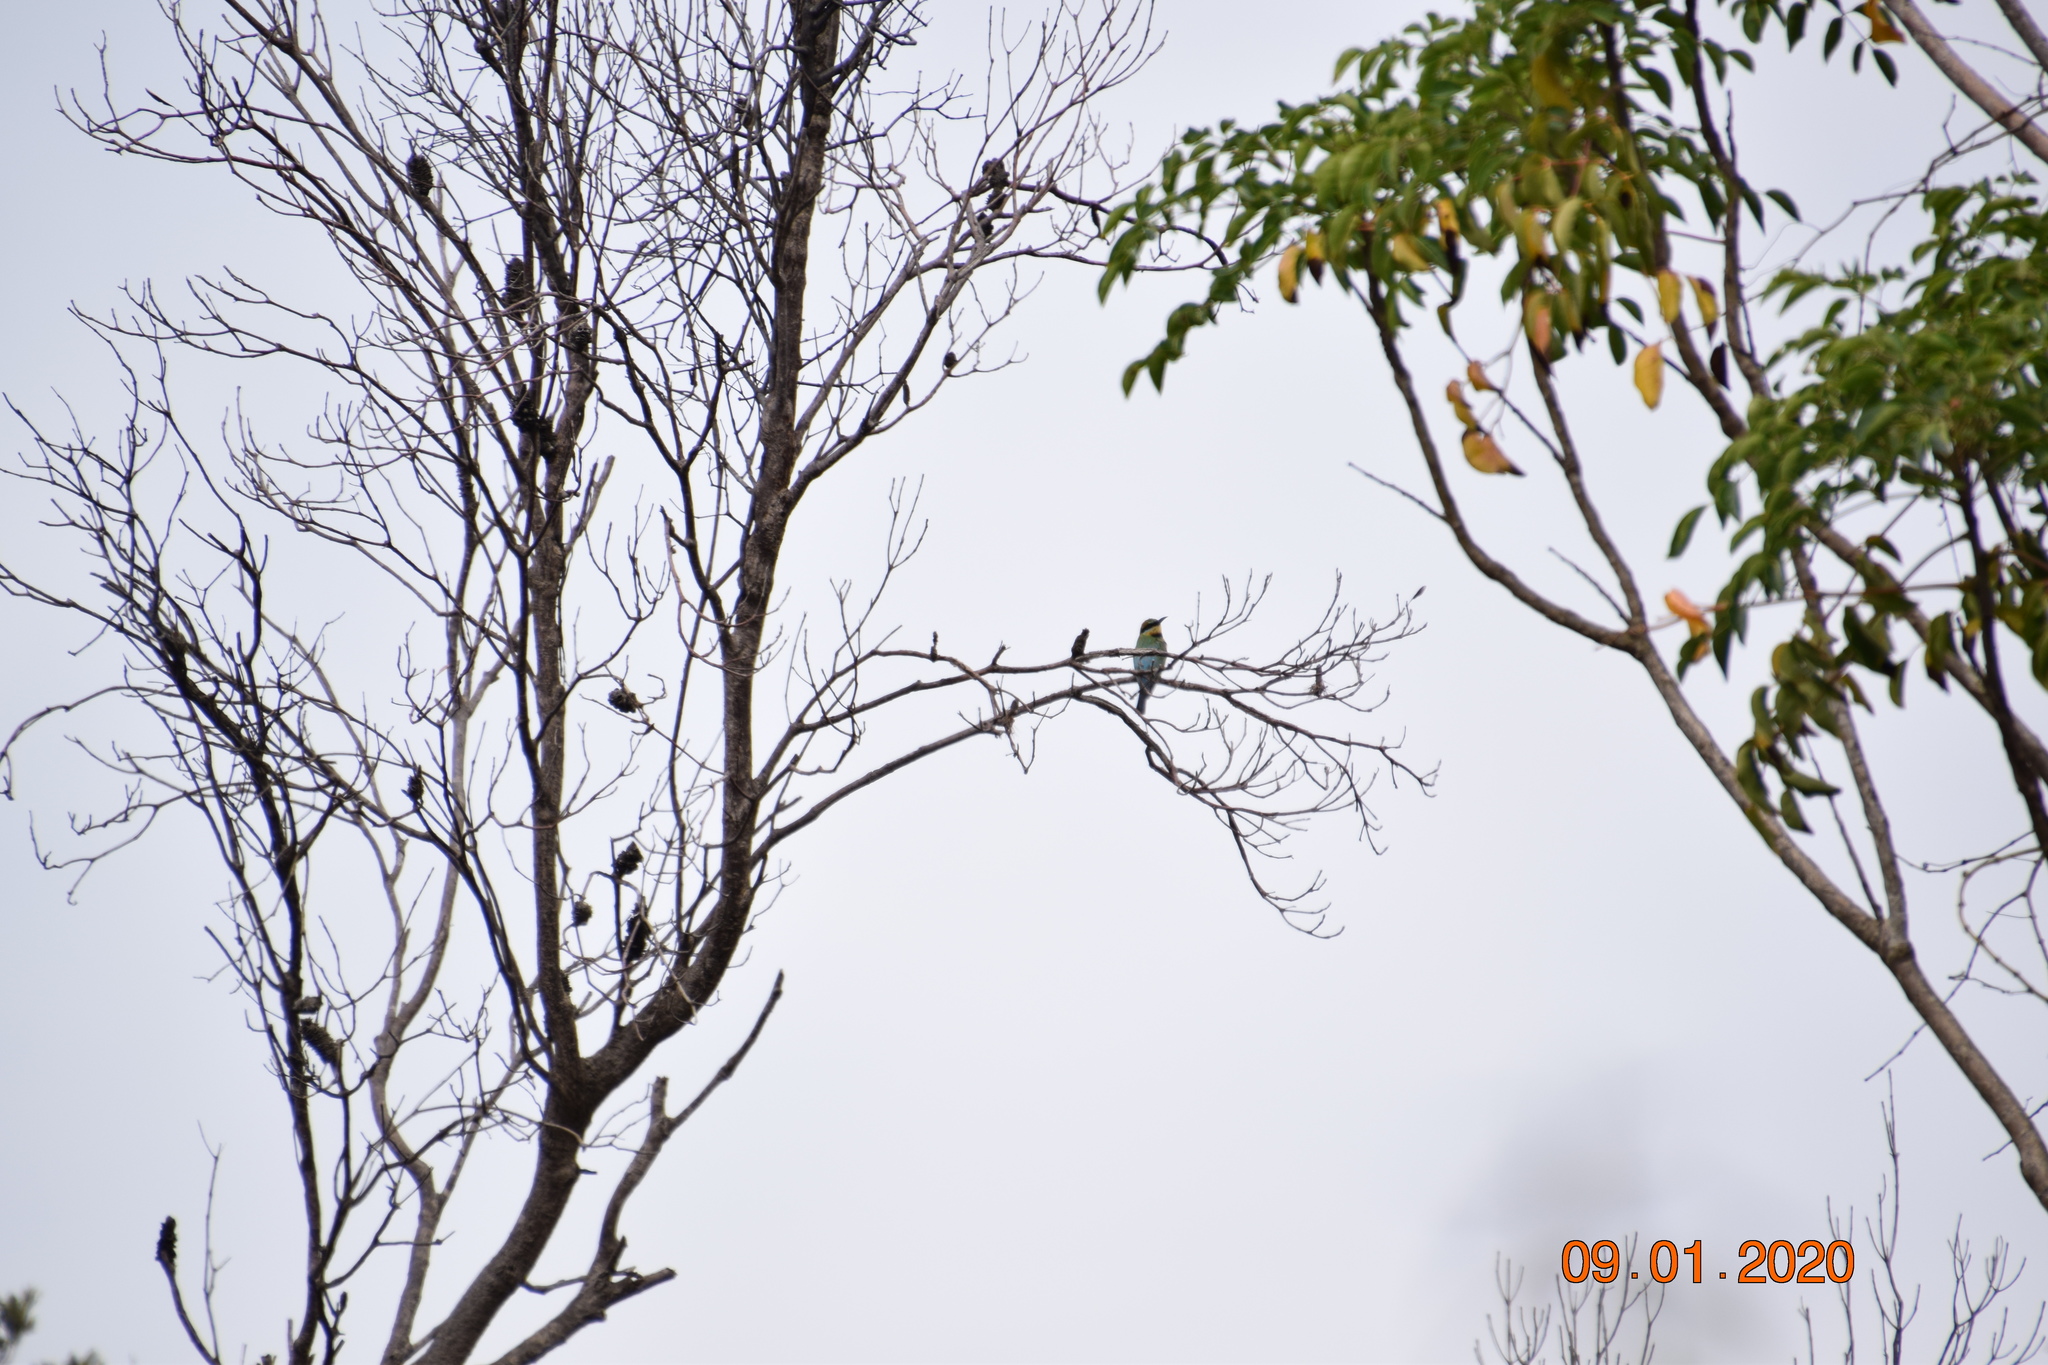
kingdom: Animalia
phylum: Chordata
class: Aves
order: Coraciiformes
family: Meropidae
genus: Merops
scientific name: Merops ornatus
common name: Rainbow bee-eater
